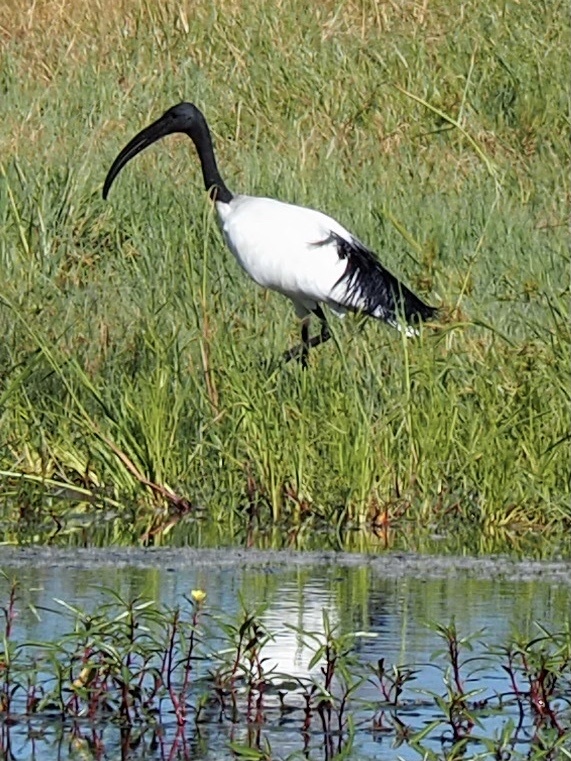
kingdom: Animalia
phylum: Chordata
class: Aves
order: Pelecaniformes
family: Threskiornithidae
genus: Threskiornis
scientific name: Threskiornis aethiopicus
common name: Sacred ibis
